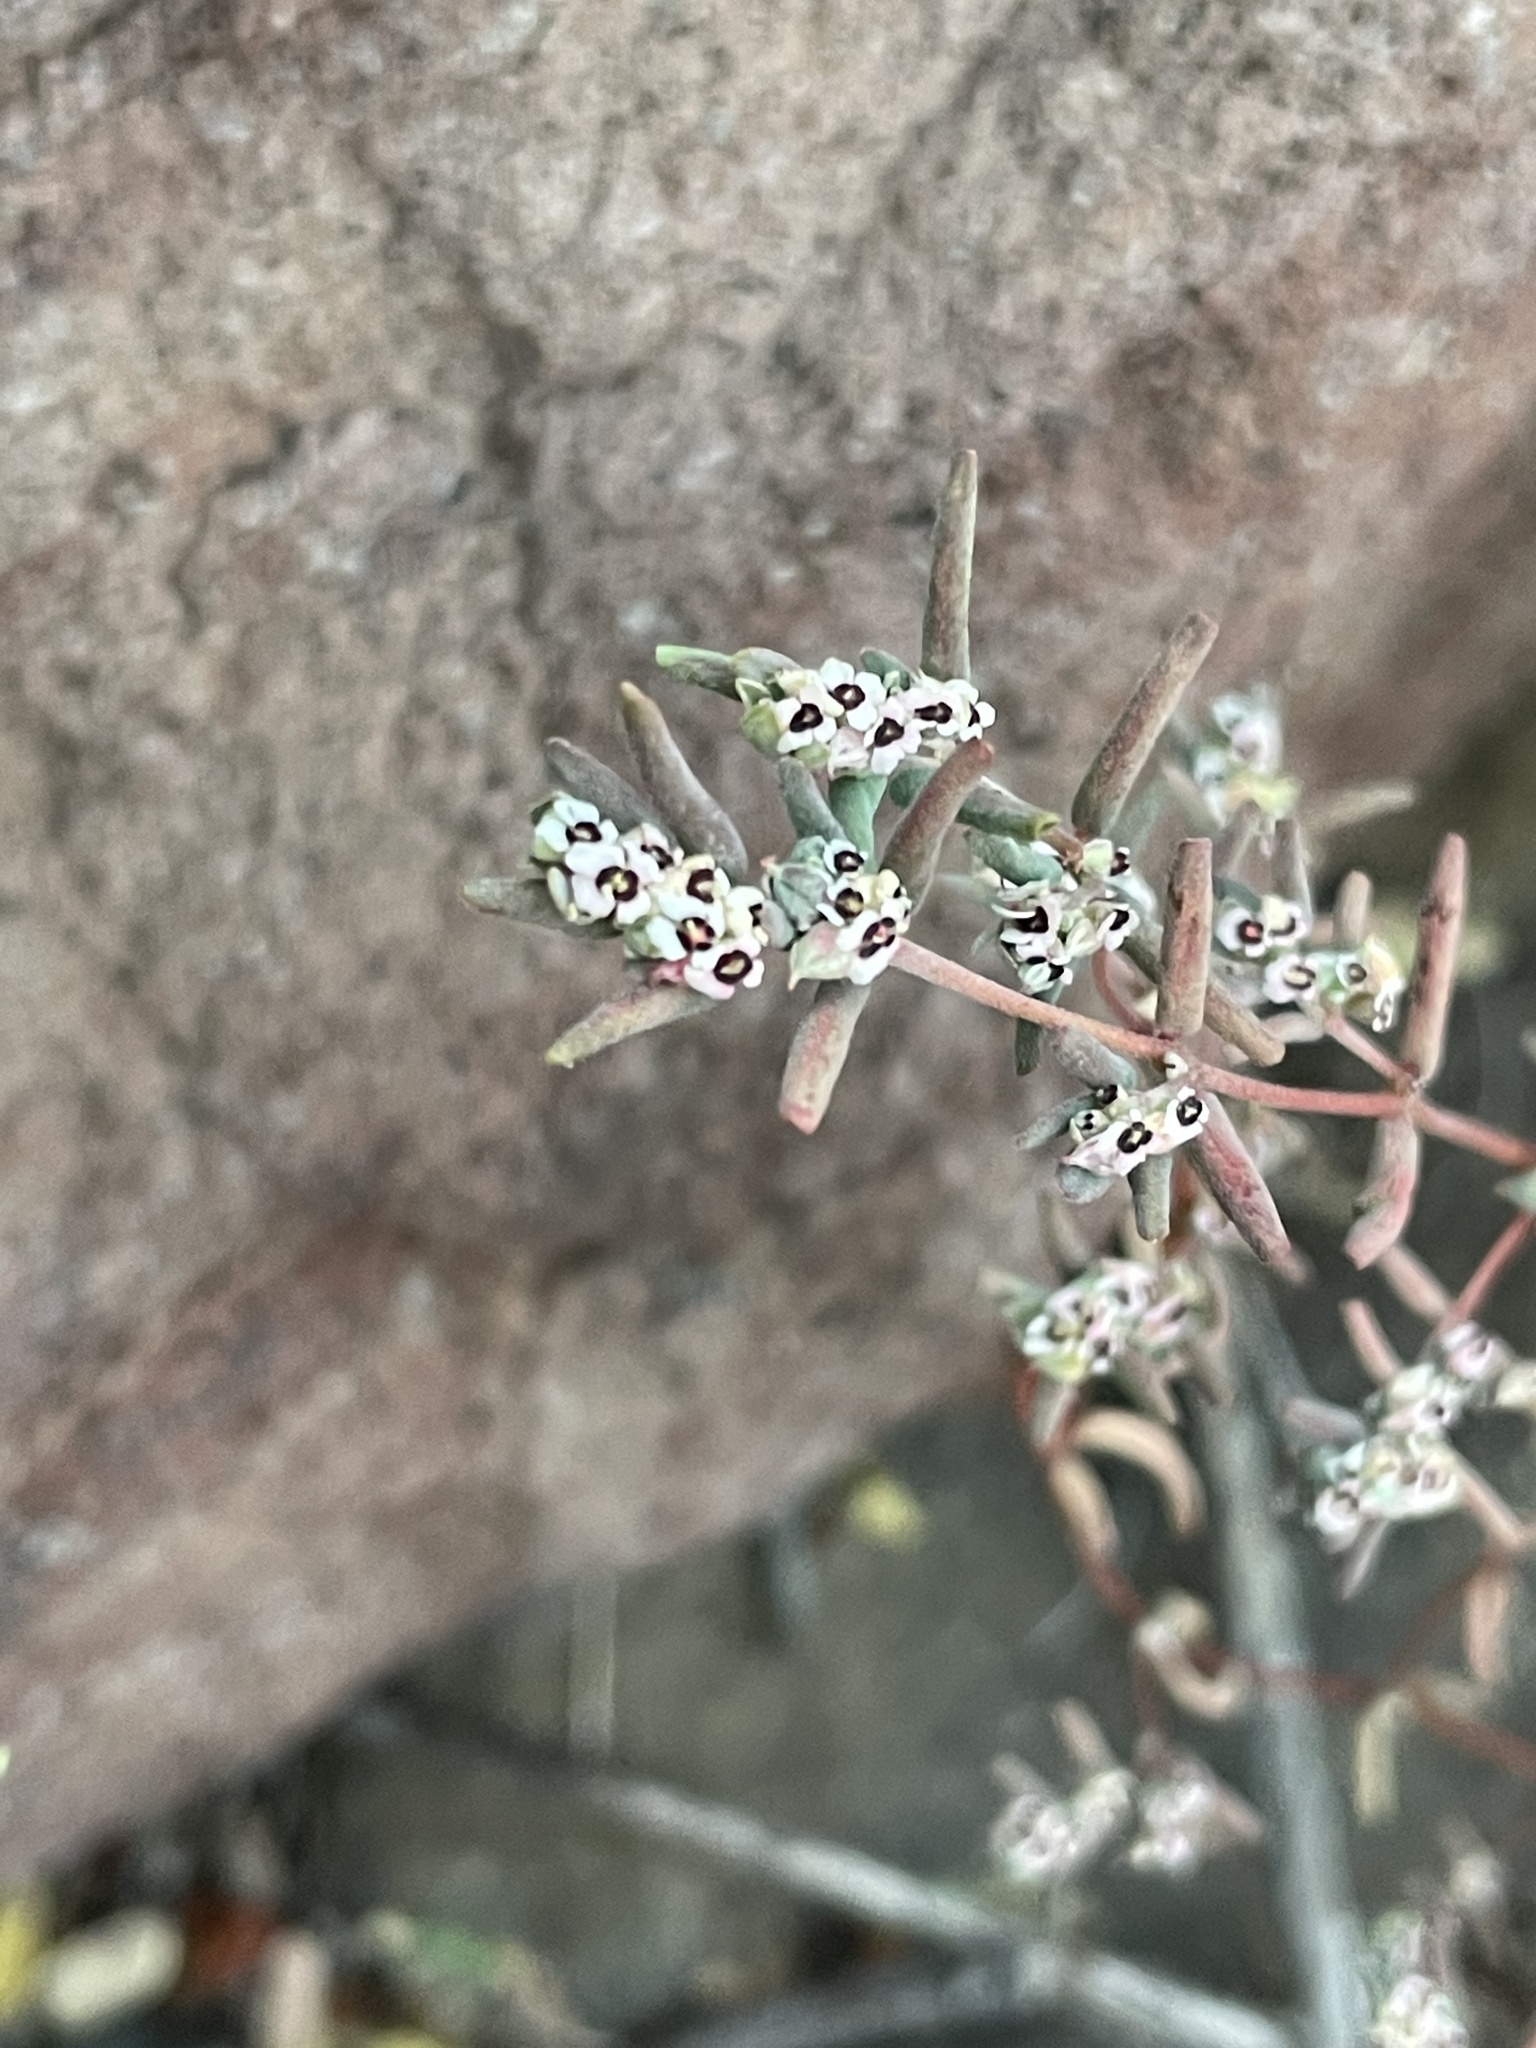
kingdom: Plantae
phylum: Tracheophyta
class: Magnoliopsida
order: Malpighiales
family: Euphorbiaceae
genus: Euphorbia
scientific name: Euphorbia pediculifera
